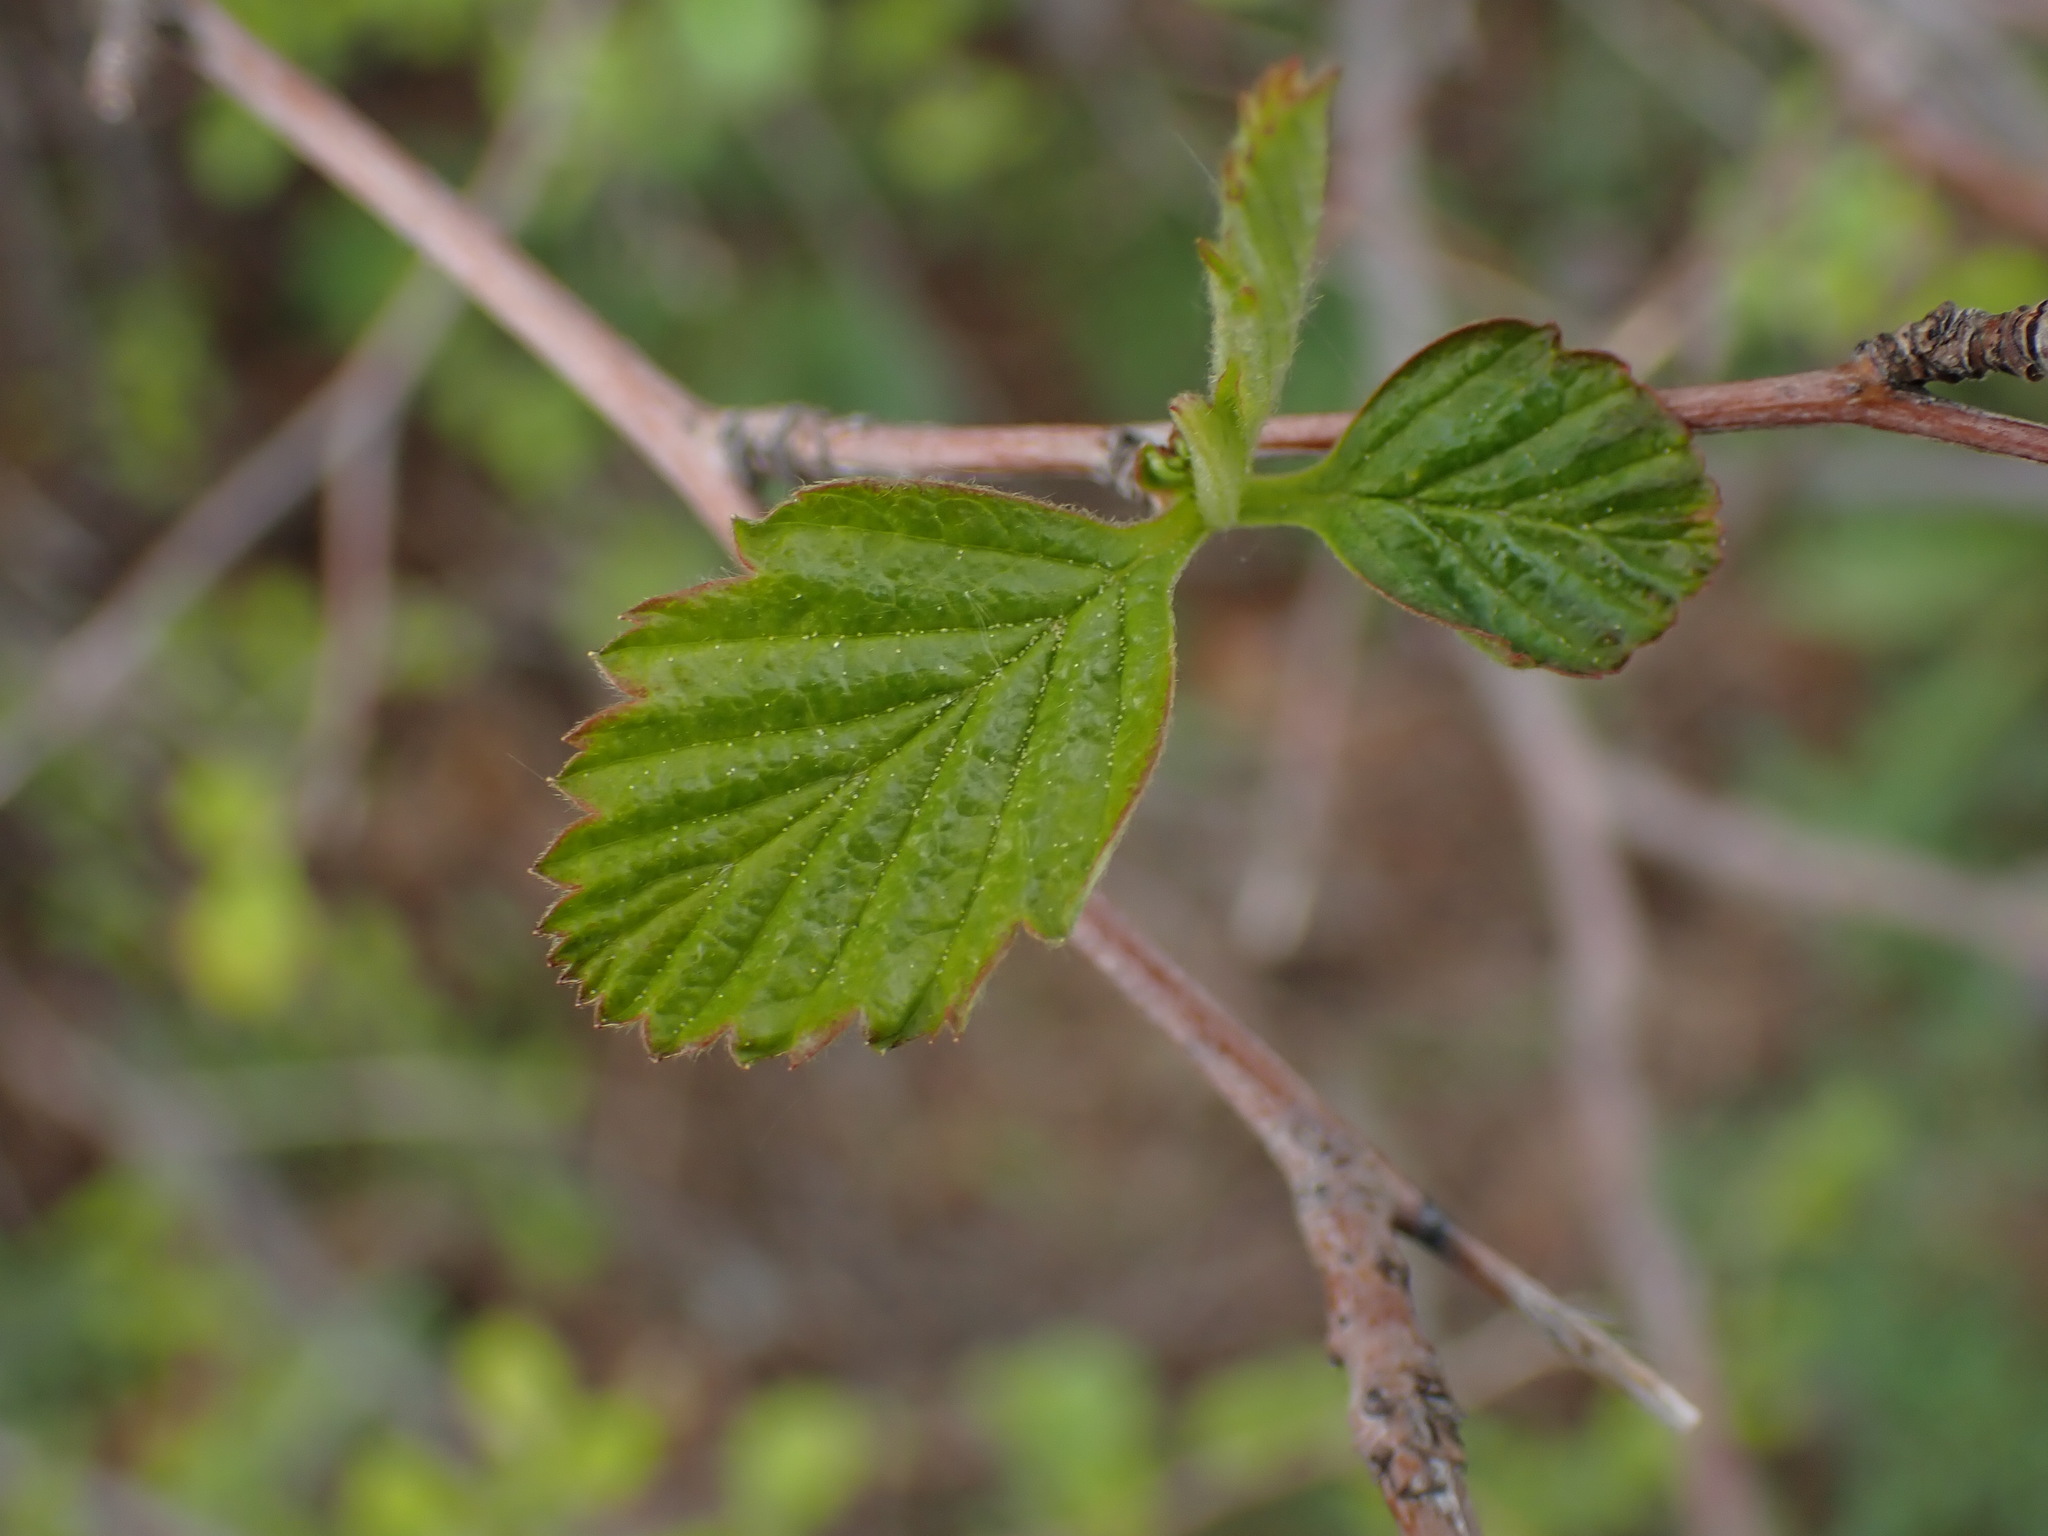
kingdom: Plantae
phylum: Tracheophyta
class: Magnoliopsida
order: Rosales
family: Rosaceae
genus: Holodiscus
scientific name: Holodiscus discolor
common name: Oceanspray
